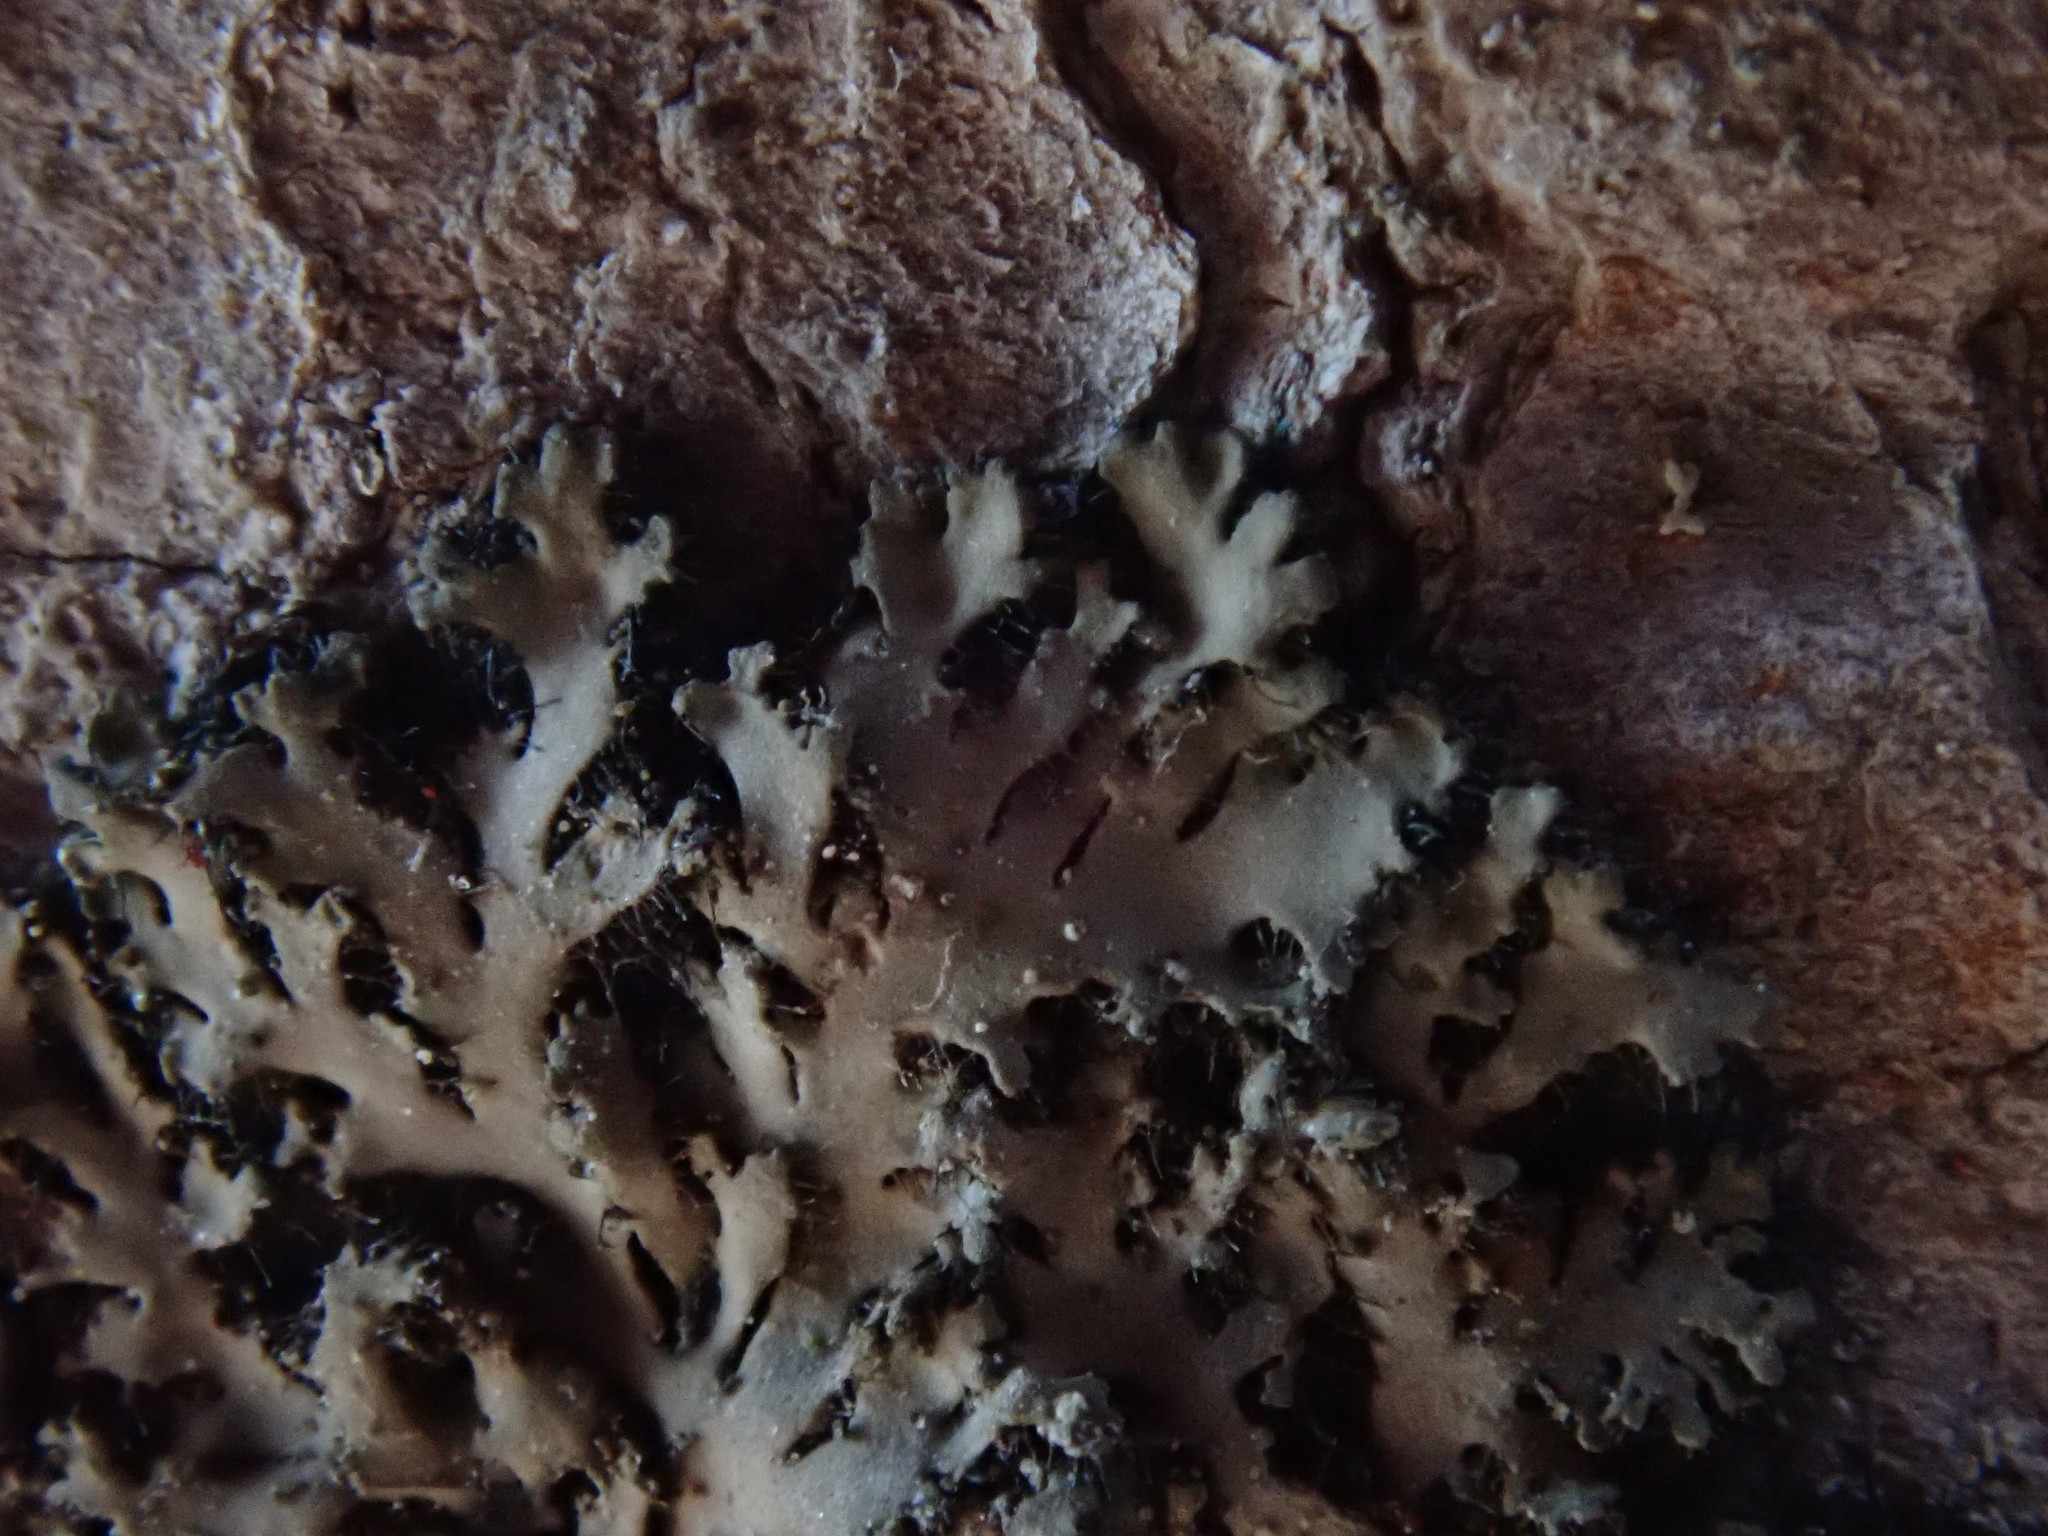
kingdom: Fungi
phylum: Ascomycota
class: Lecanoromycetes
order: Caliciales
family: Physciaceae
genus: Phaeophyscia
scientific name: Phaeophyscia rubropulchra
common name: Orange-cored shadow lichen
